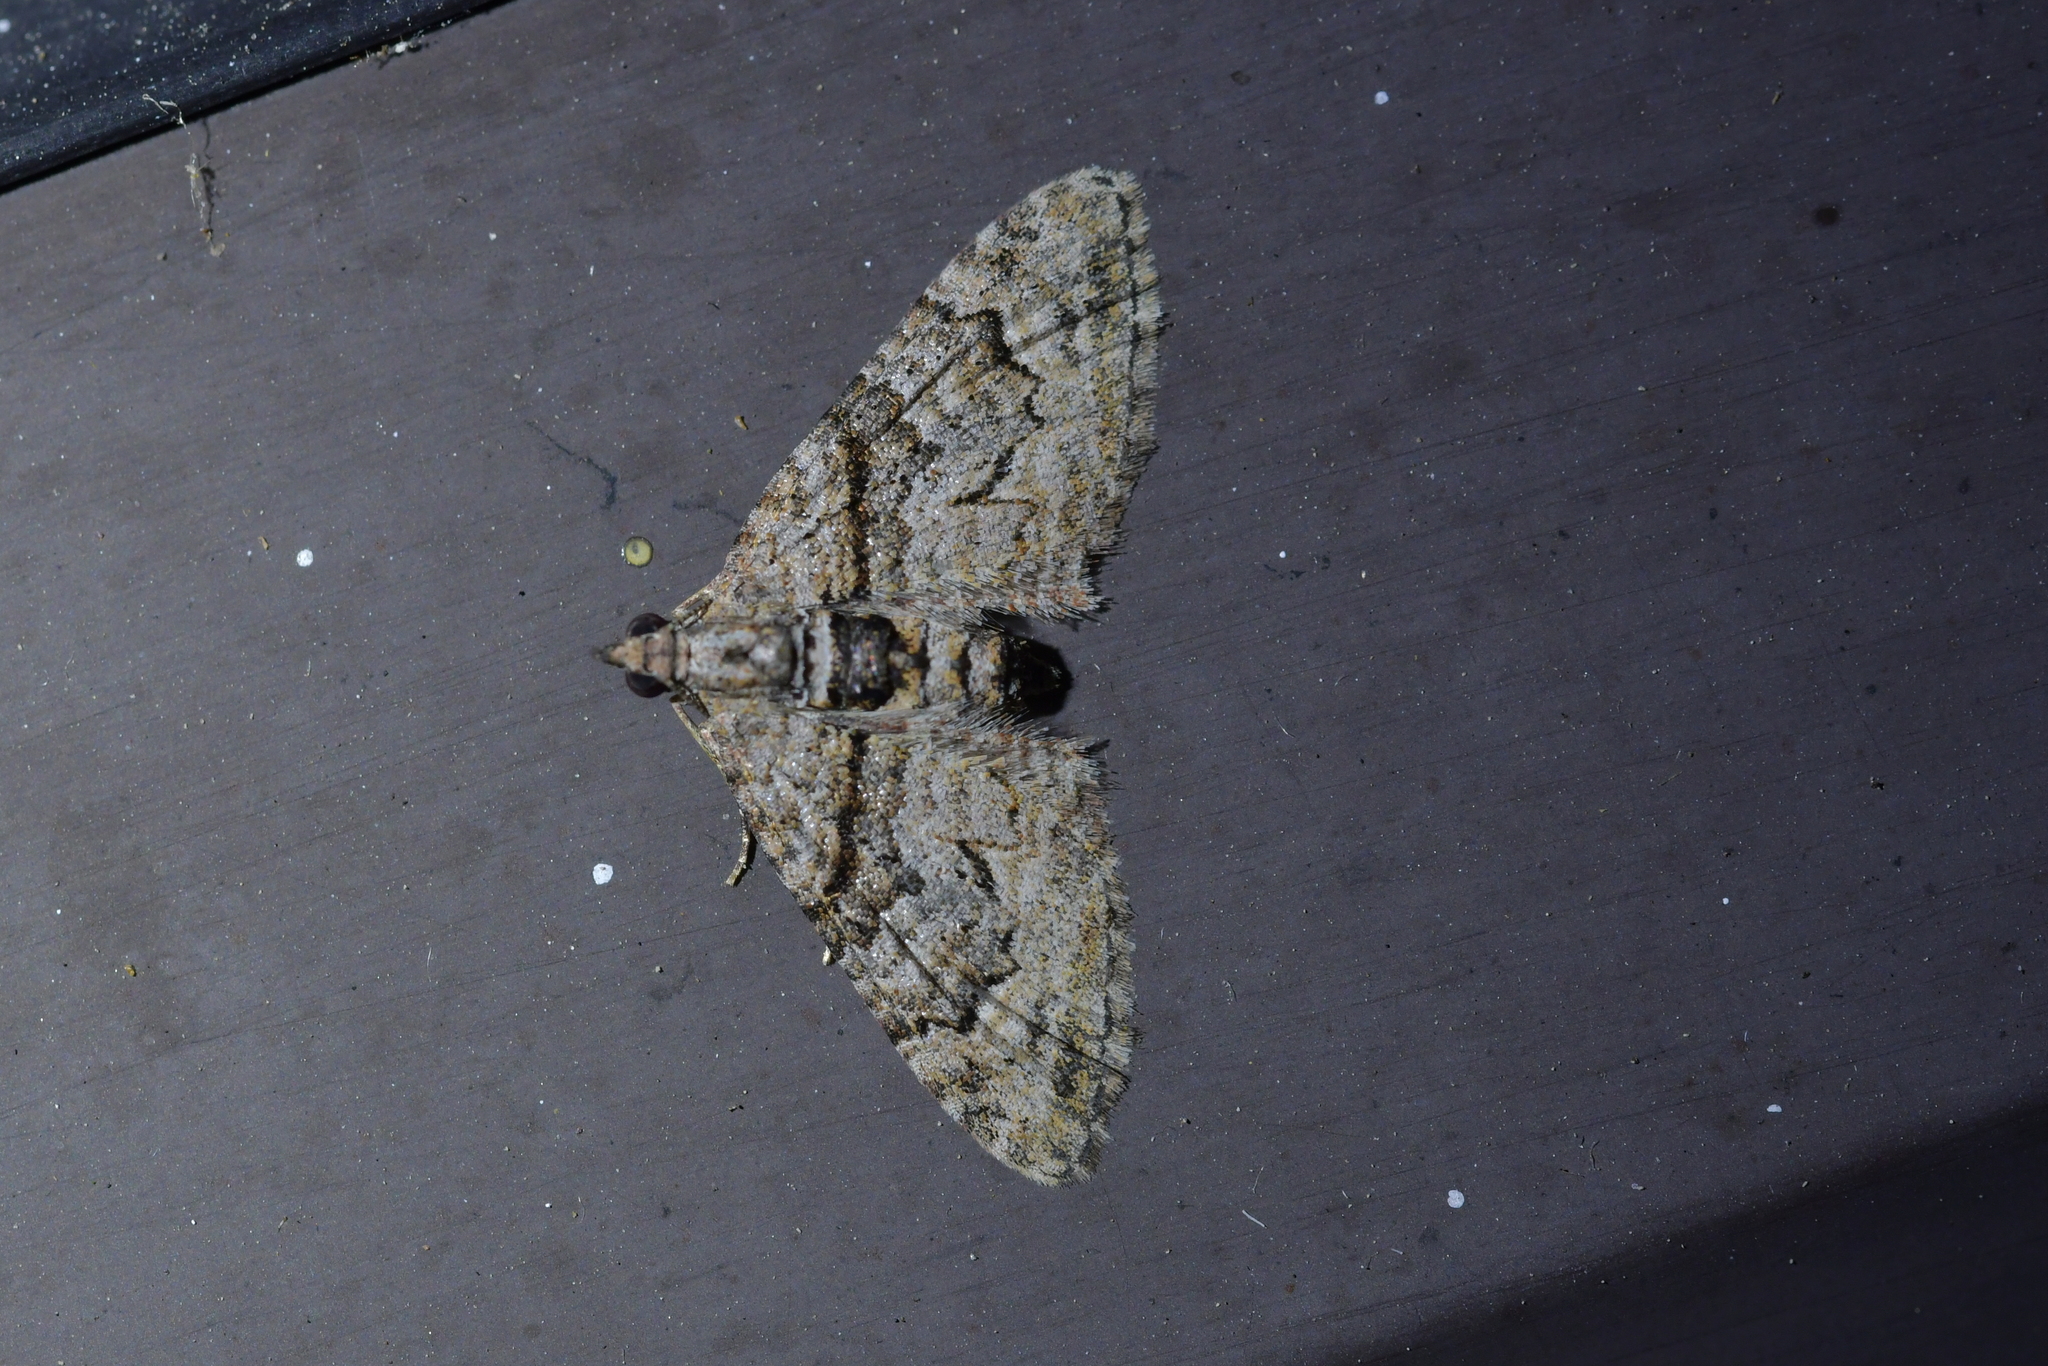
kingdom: Animalia
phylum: Arthropoda
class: Insecta
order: Lepidoptera
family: Geometridae
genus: Phrissogonus
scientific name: Phrissogonus laticostata
